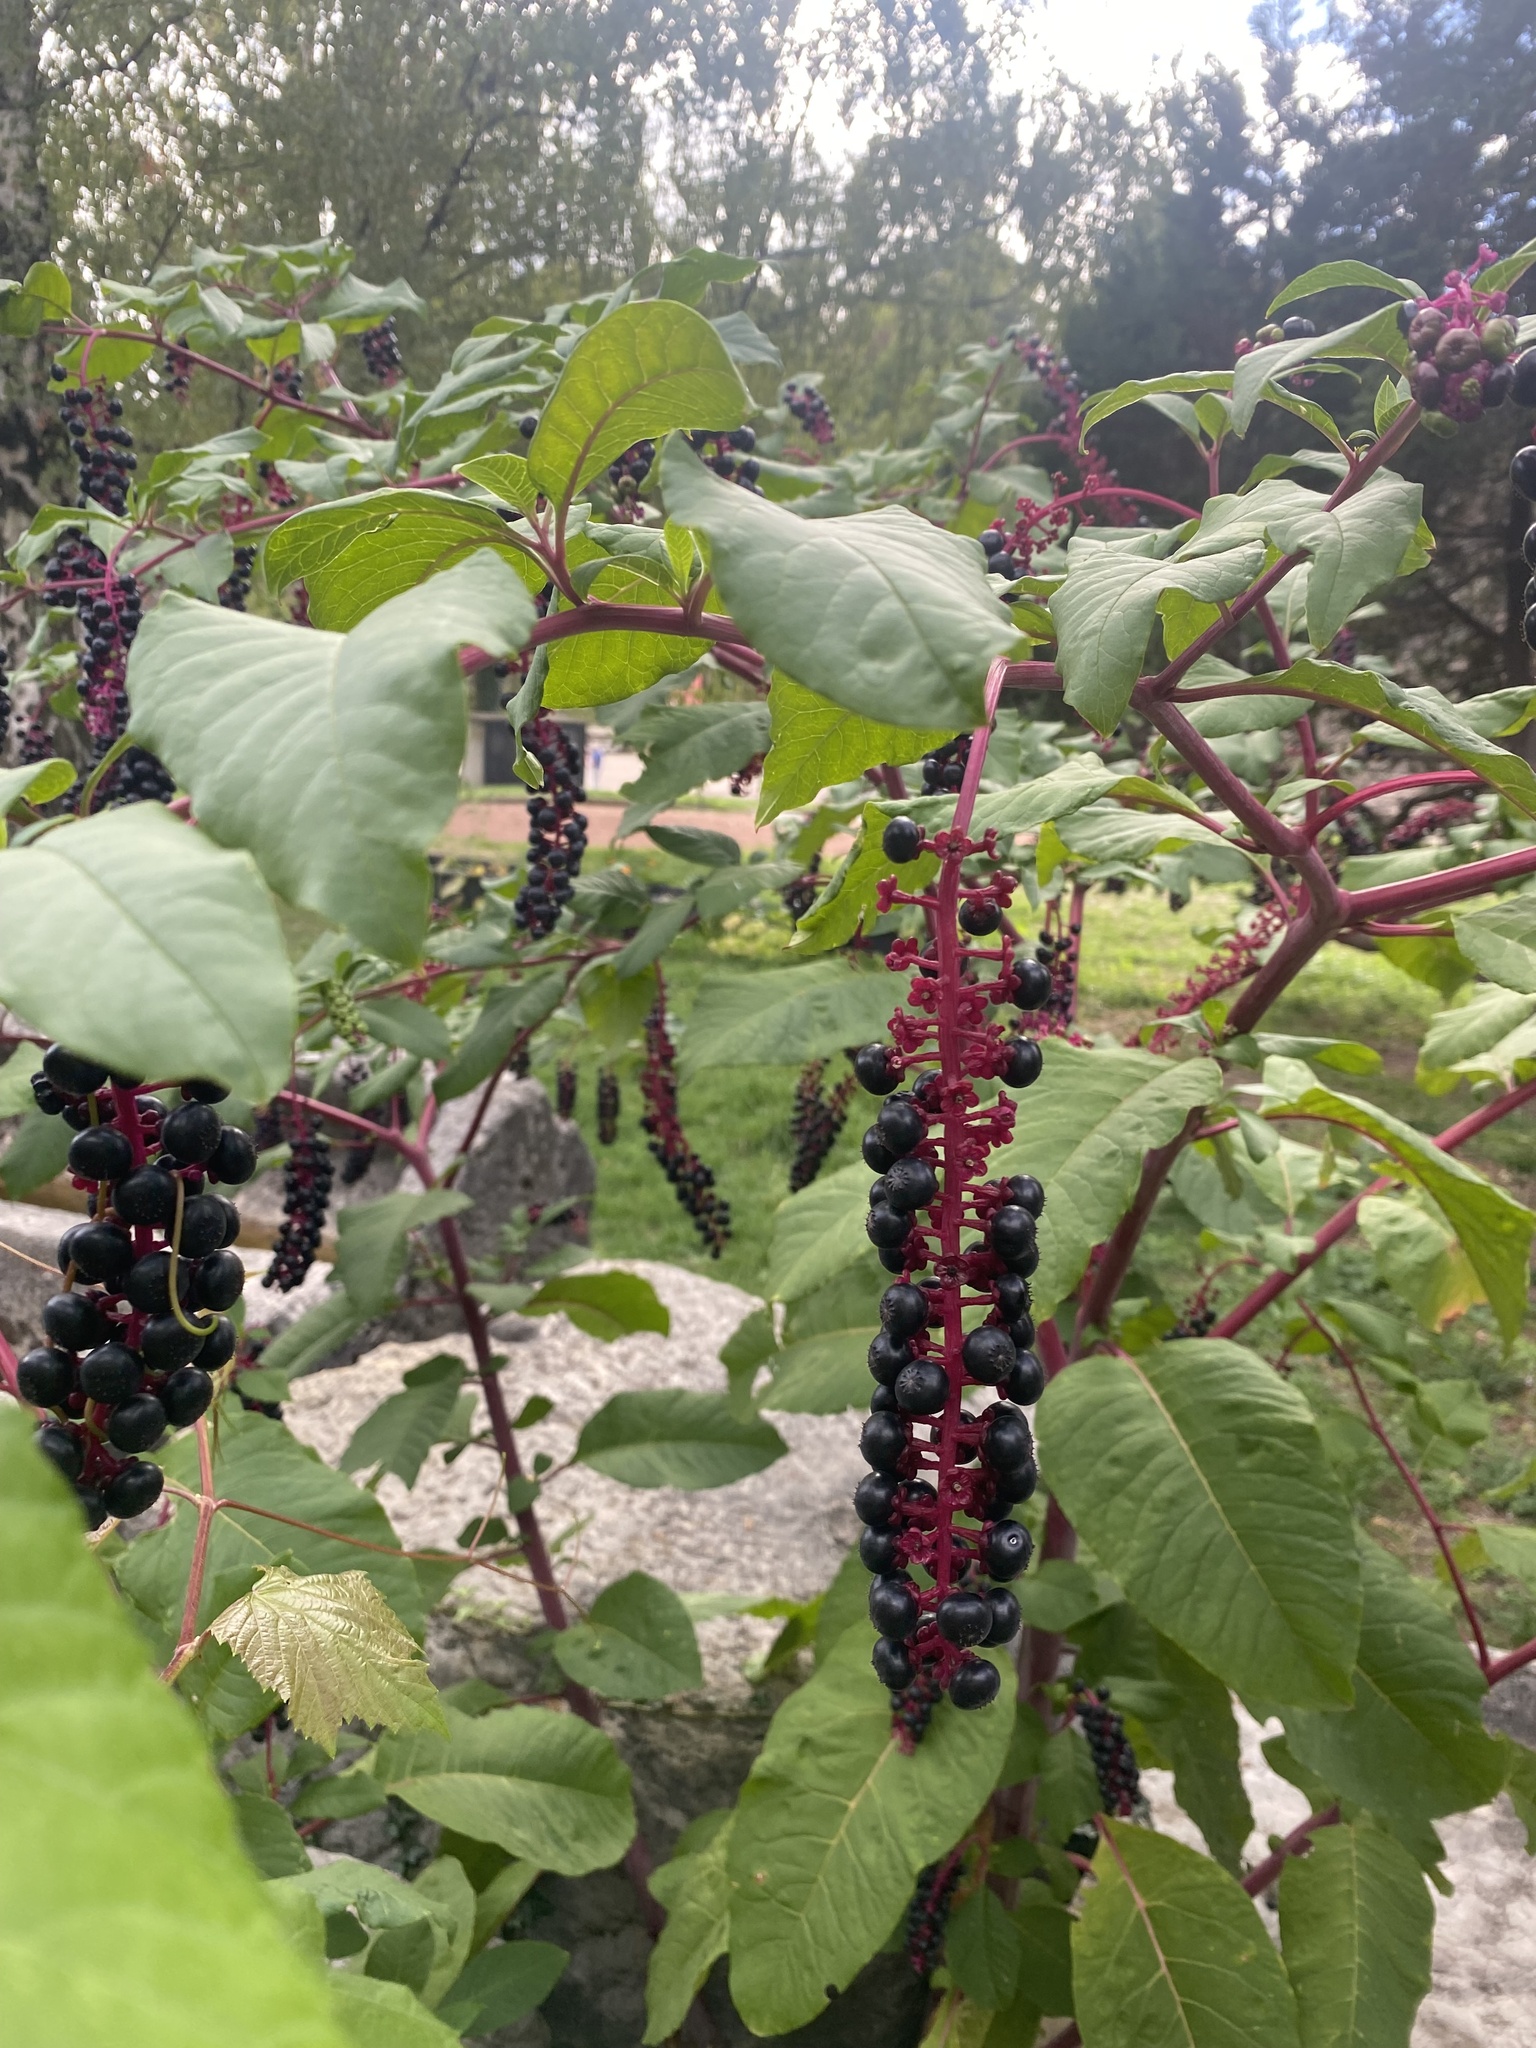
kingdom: Plantae
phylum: Tracheophyta
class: Magnoliopsida
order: Caryophyllales
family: Phytolaccaceae
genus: Phytolacca
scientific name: Phytolacca americana
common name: American pokeweed
